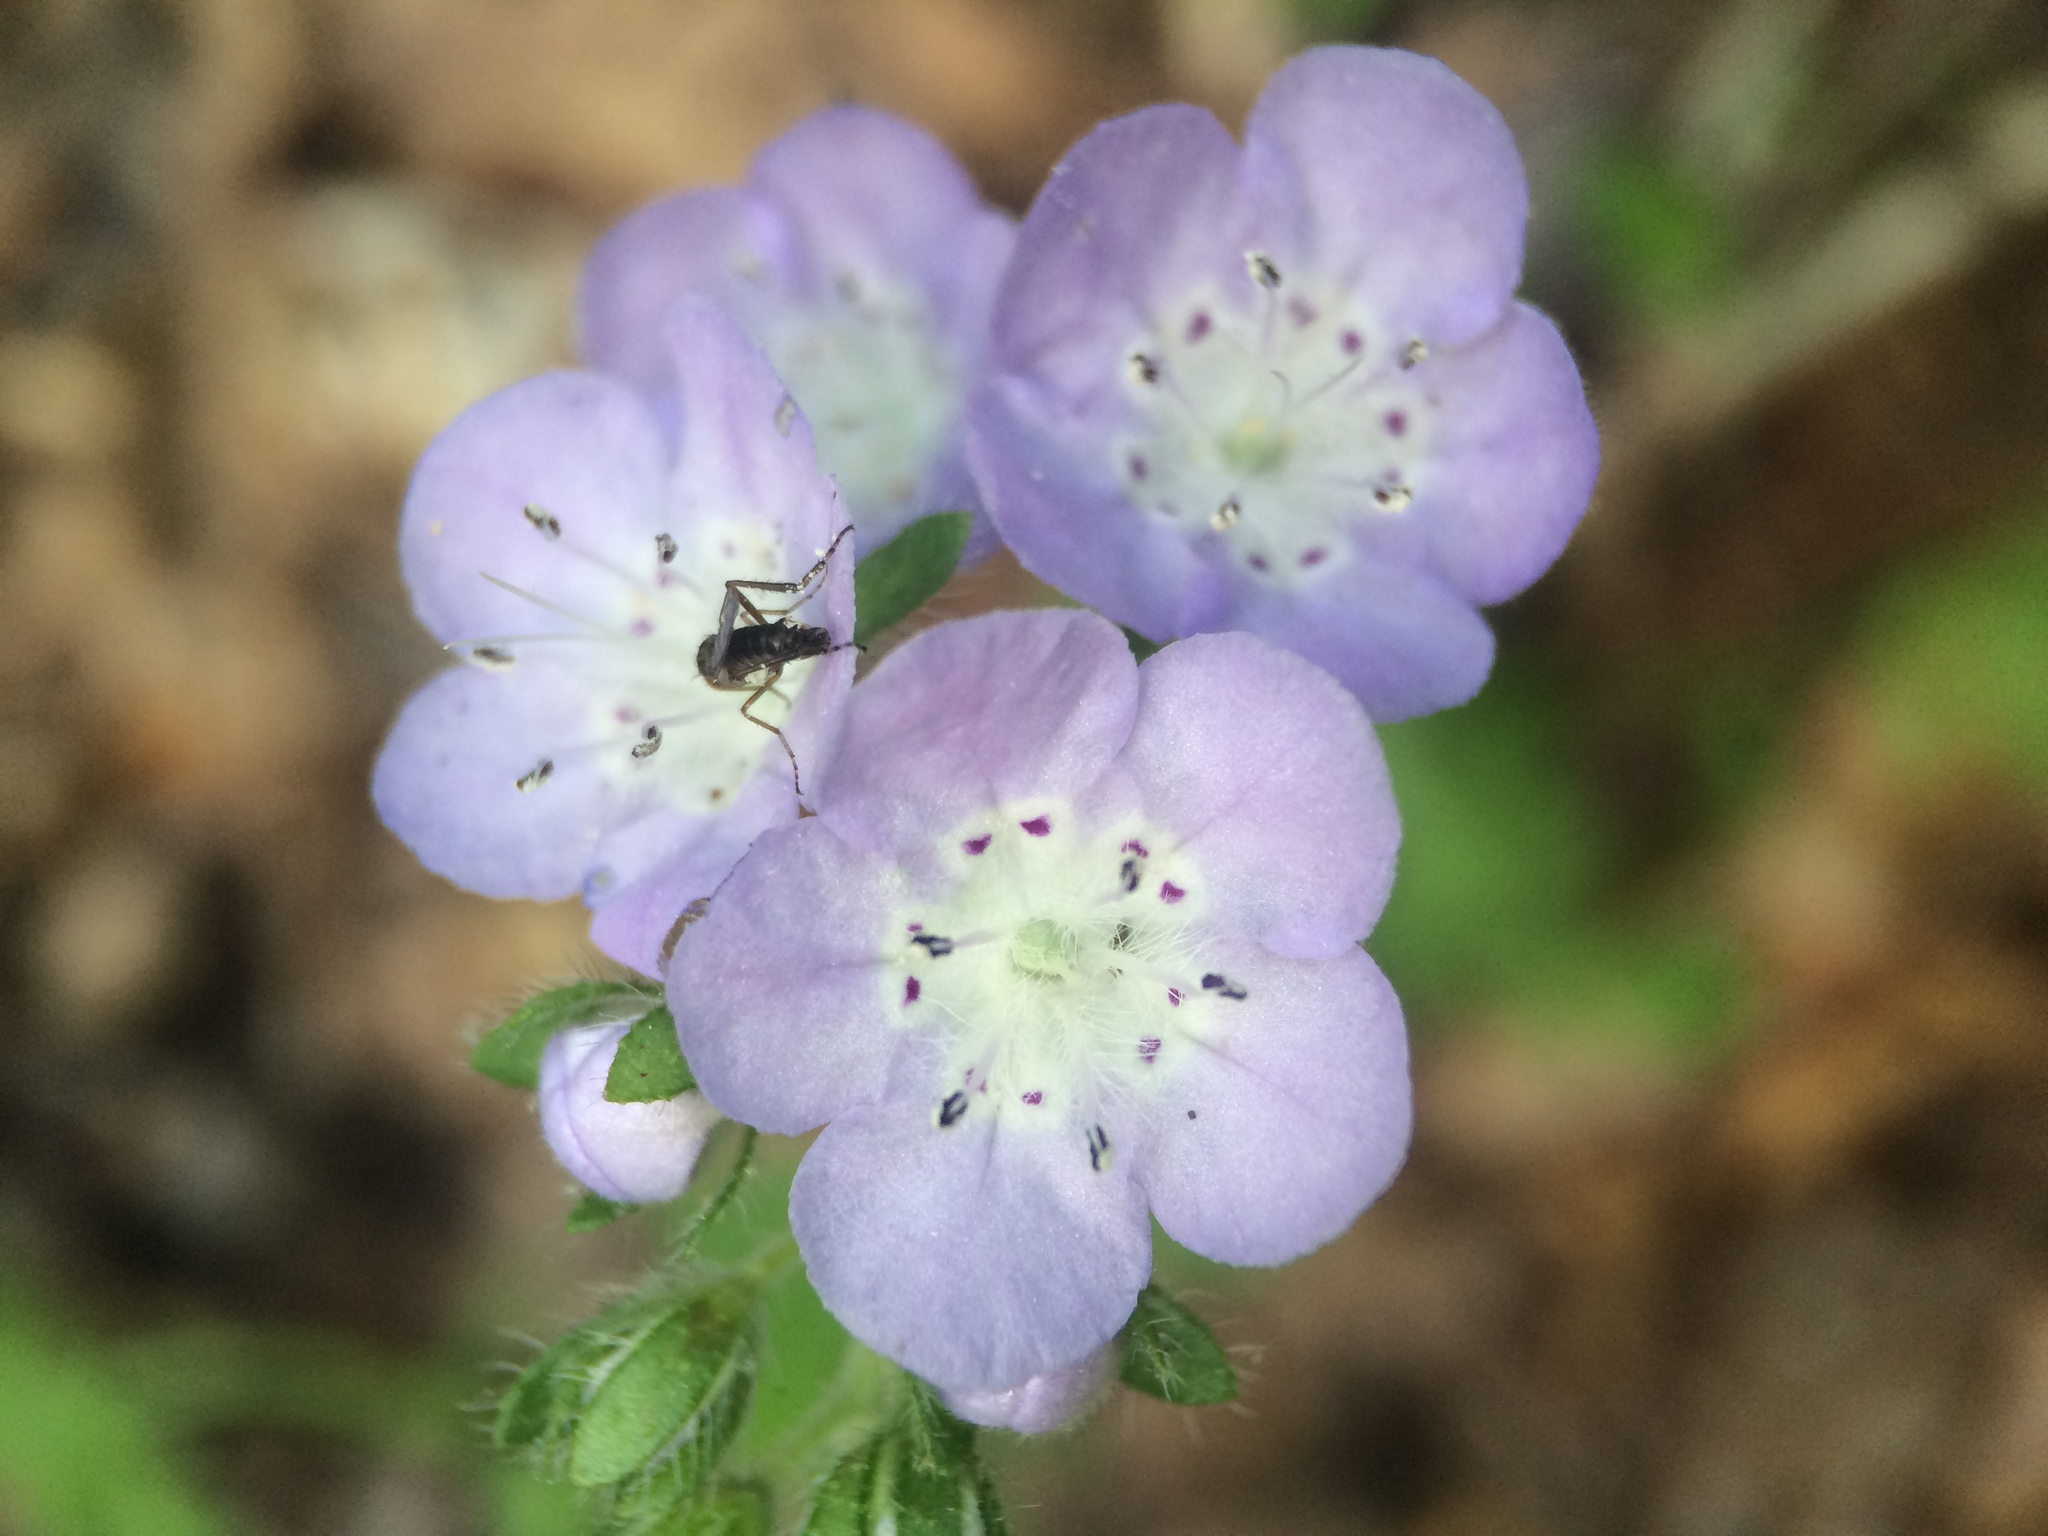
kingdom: Plantae
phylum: Tracheophyta
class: Magnoliopsida
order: Boraginales
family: Hydrophyllaceae
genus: Phacelia
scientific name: Phacelia hirsuta
